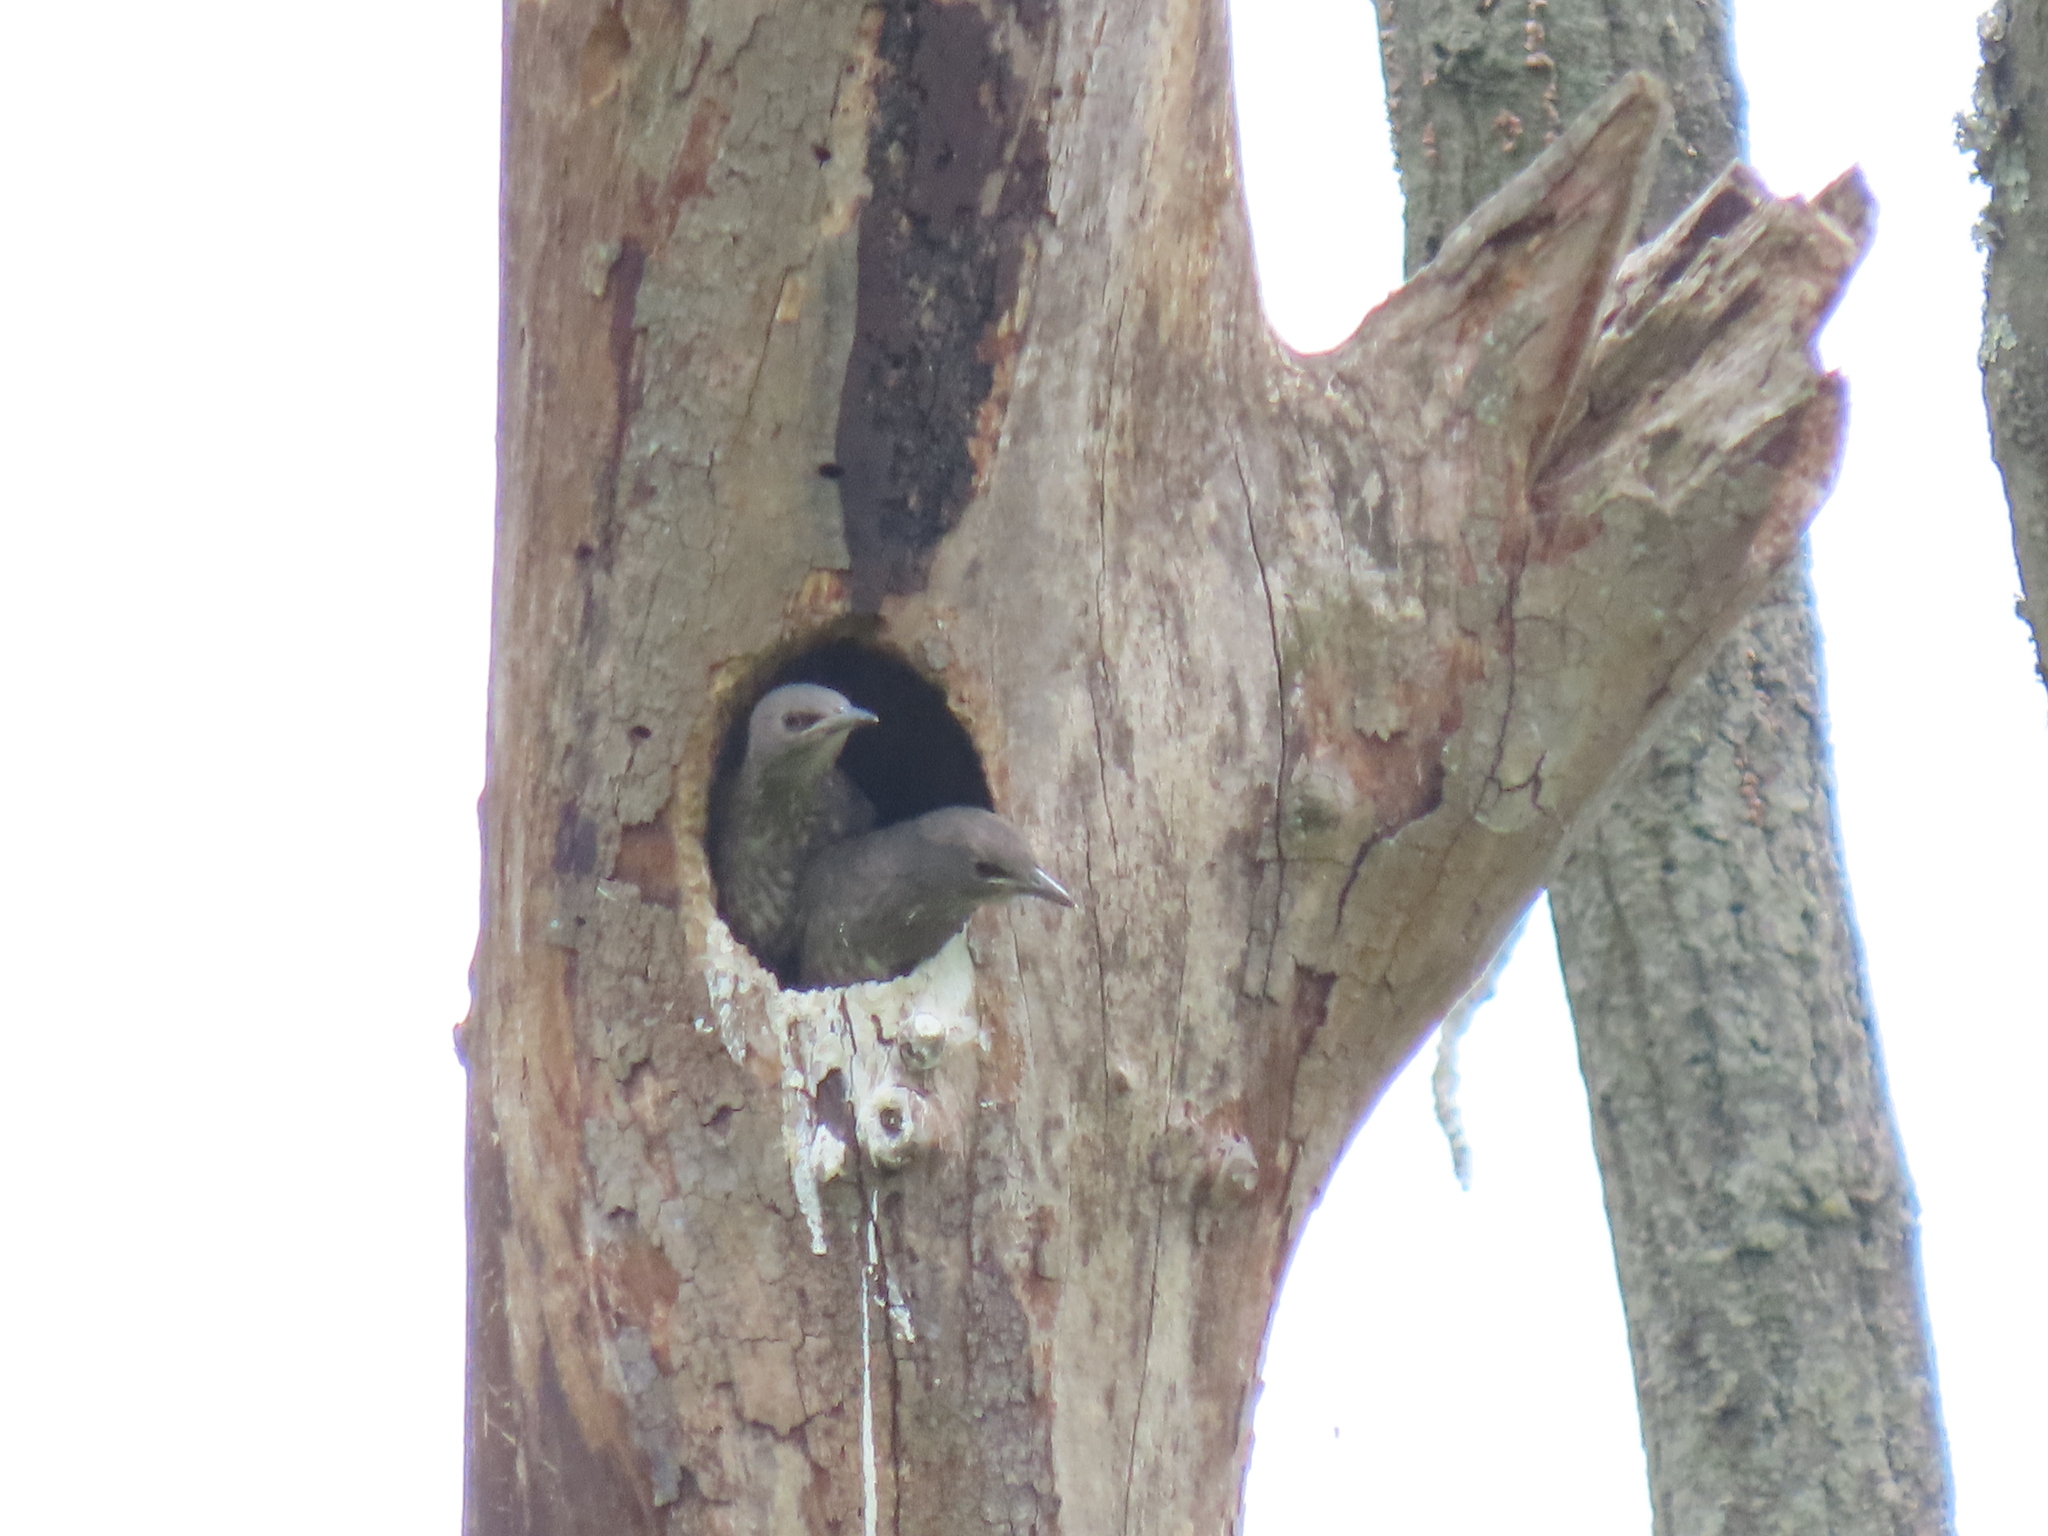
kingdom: Animalia
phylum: Chordata
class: Aves
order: Passeriformes
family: Sturnidae
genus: Sturnus
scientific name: Sturnus vulgaris
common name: Common starling
